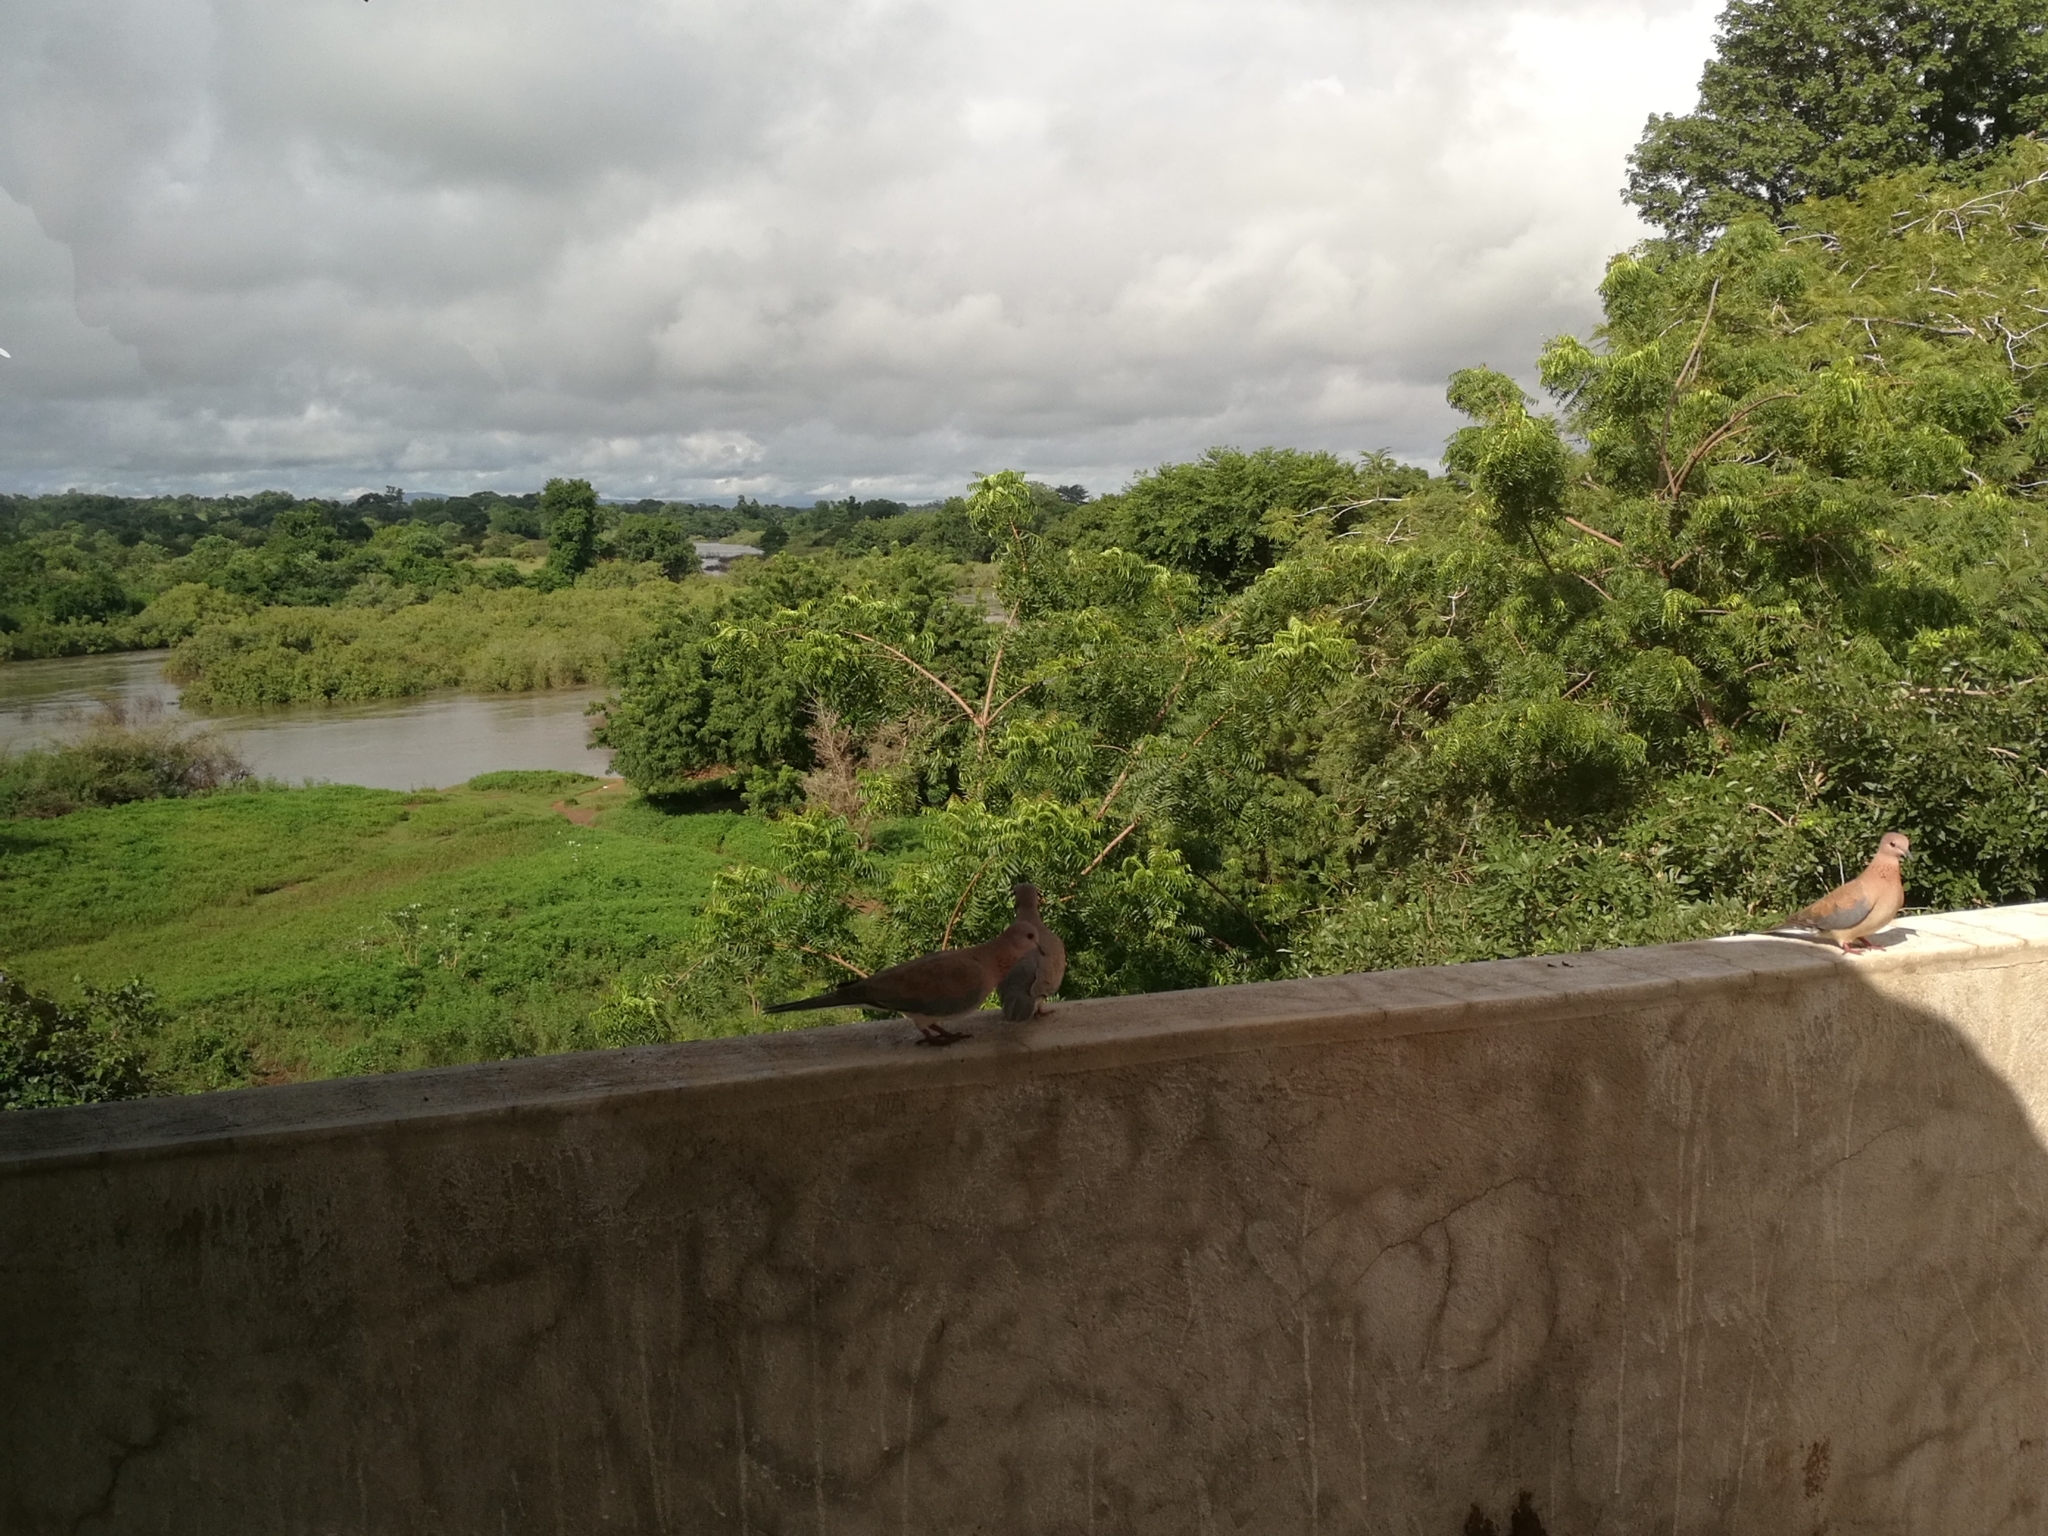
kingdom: Animalia
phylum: Chordata
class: Aves
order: Columbiformes
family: Columbidae
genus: Spilopelia
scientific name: Spilopelia senegalensis
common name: Laughing dove
